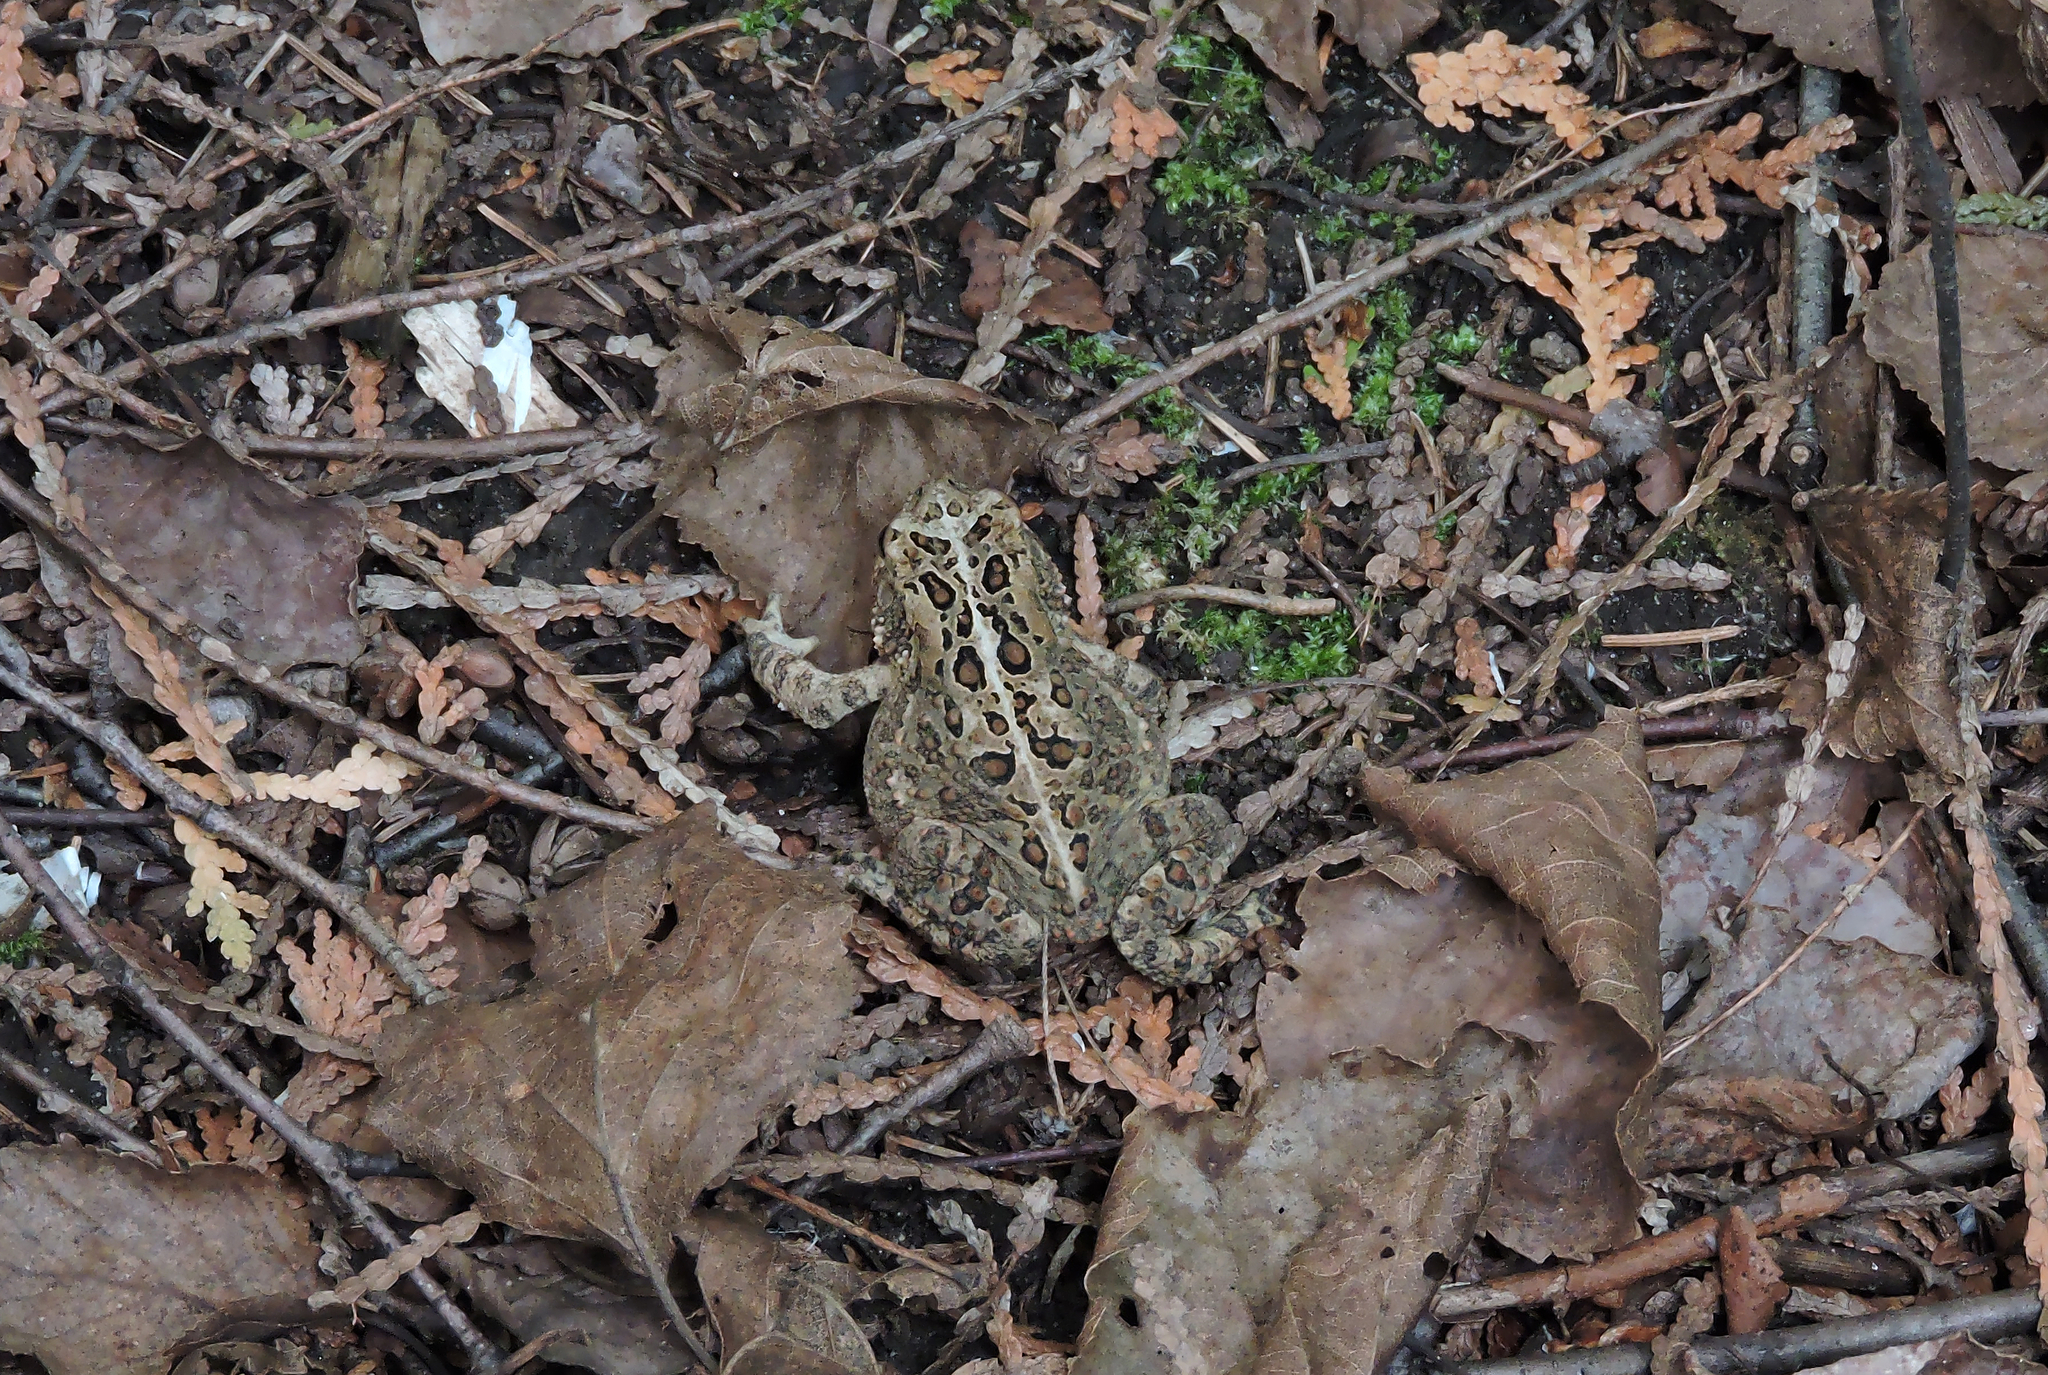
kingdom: Animalia
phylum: Chordata
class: Amphibia
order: Anura
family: Bufonidae
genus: Anaxyrus
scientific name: Anaxyrus americanus
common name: American toad
